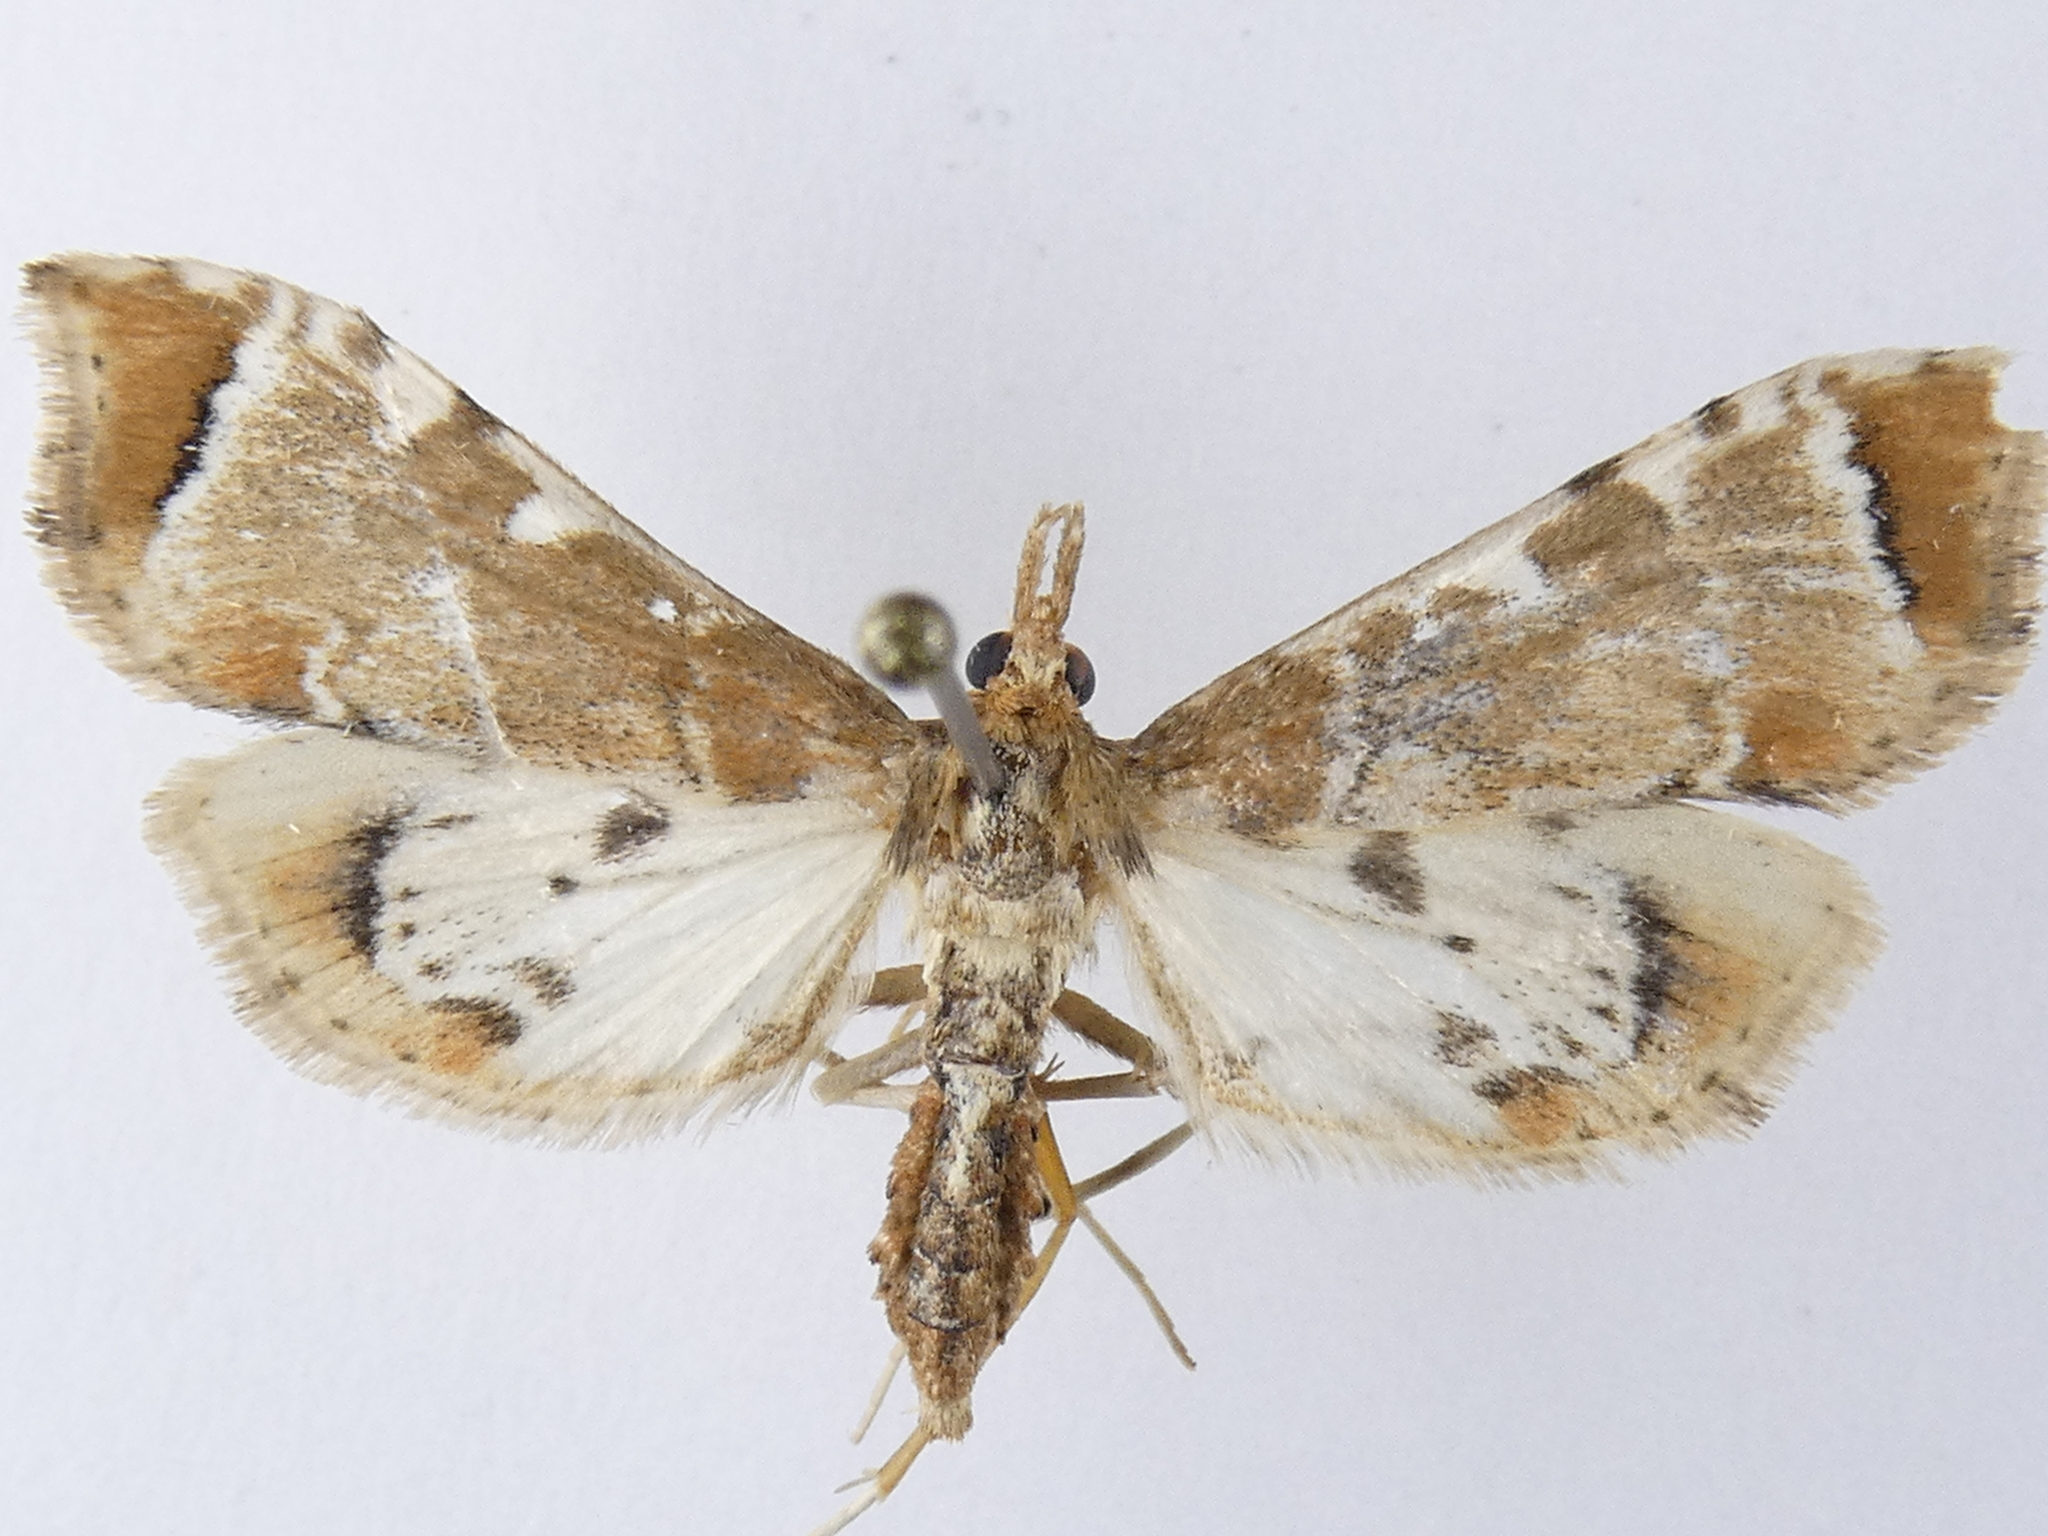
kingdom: Animalia
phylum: Arthropoda
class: Insecta
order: Lepidoptera
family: Crambidae
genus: Sceliodes
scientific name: Sceliodes cordalis
